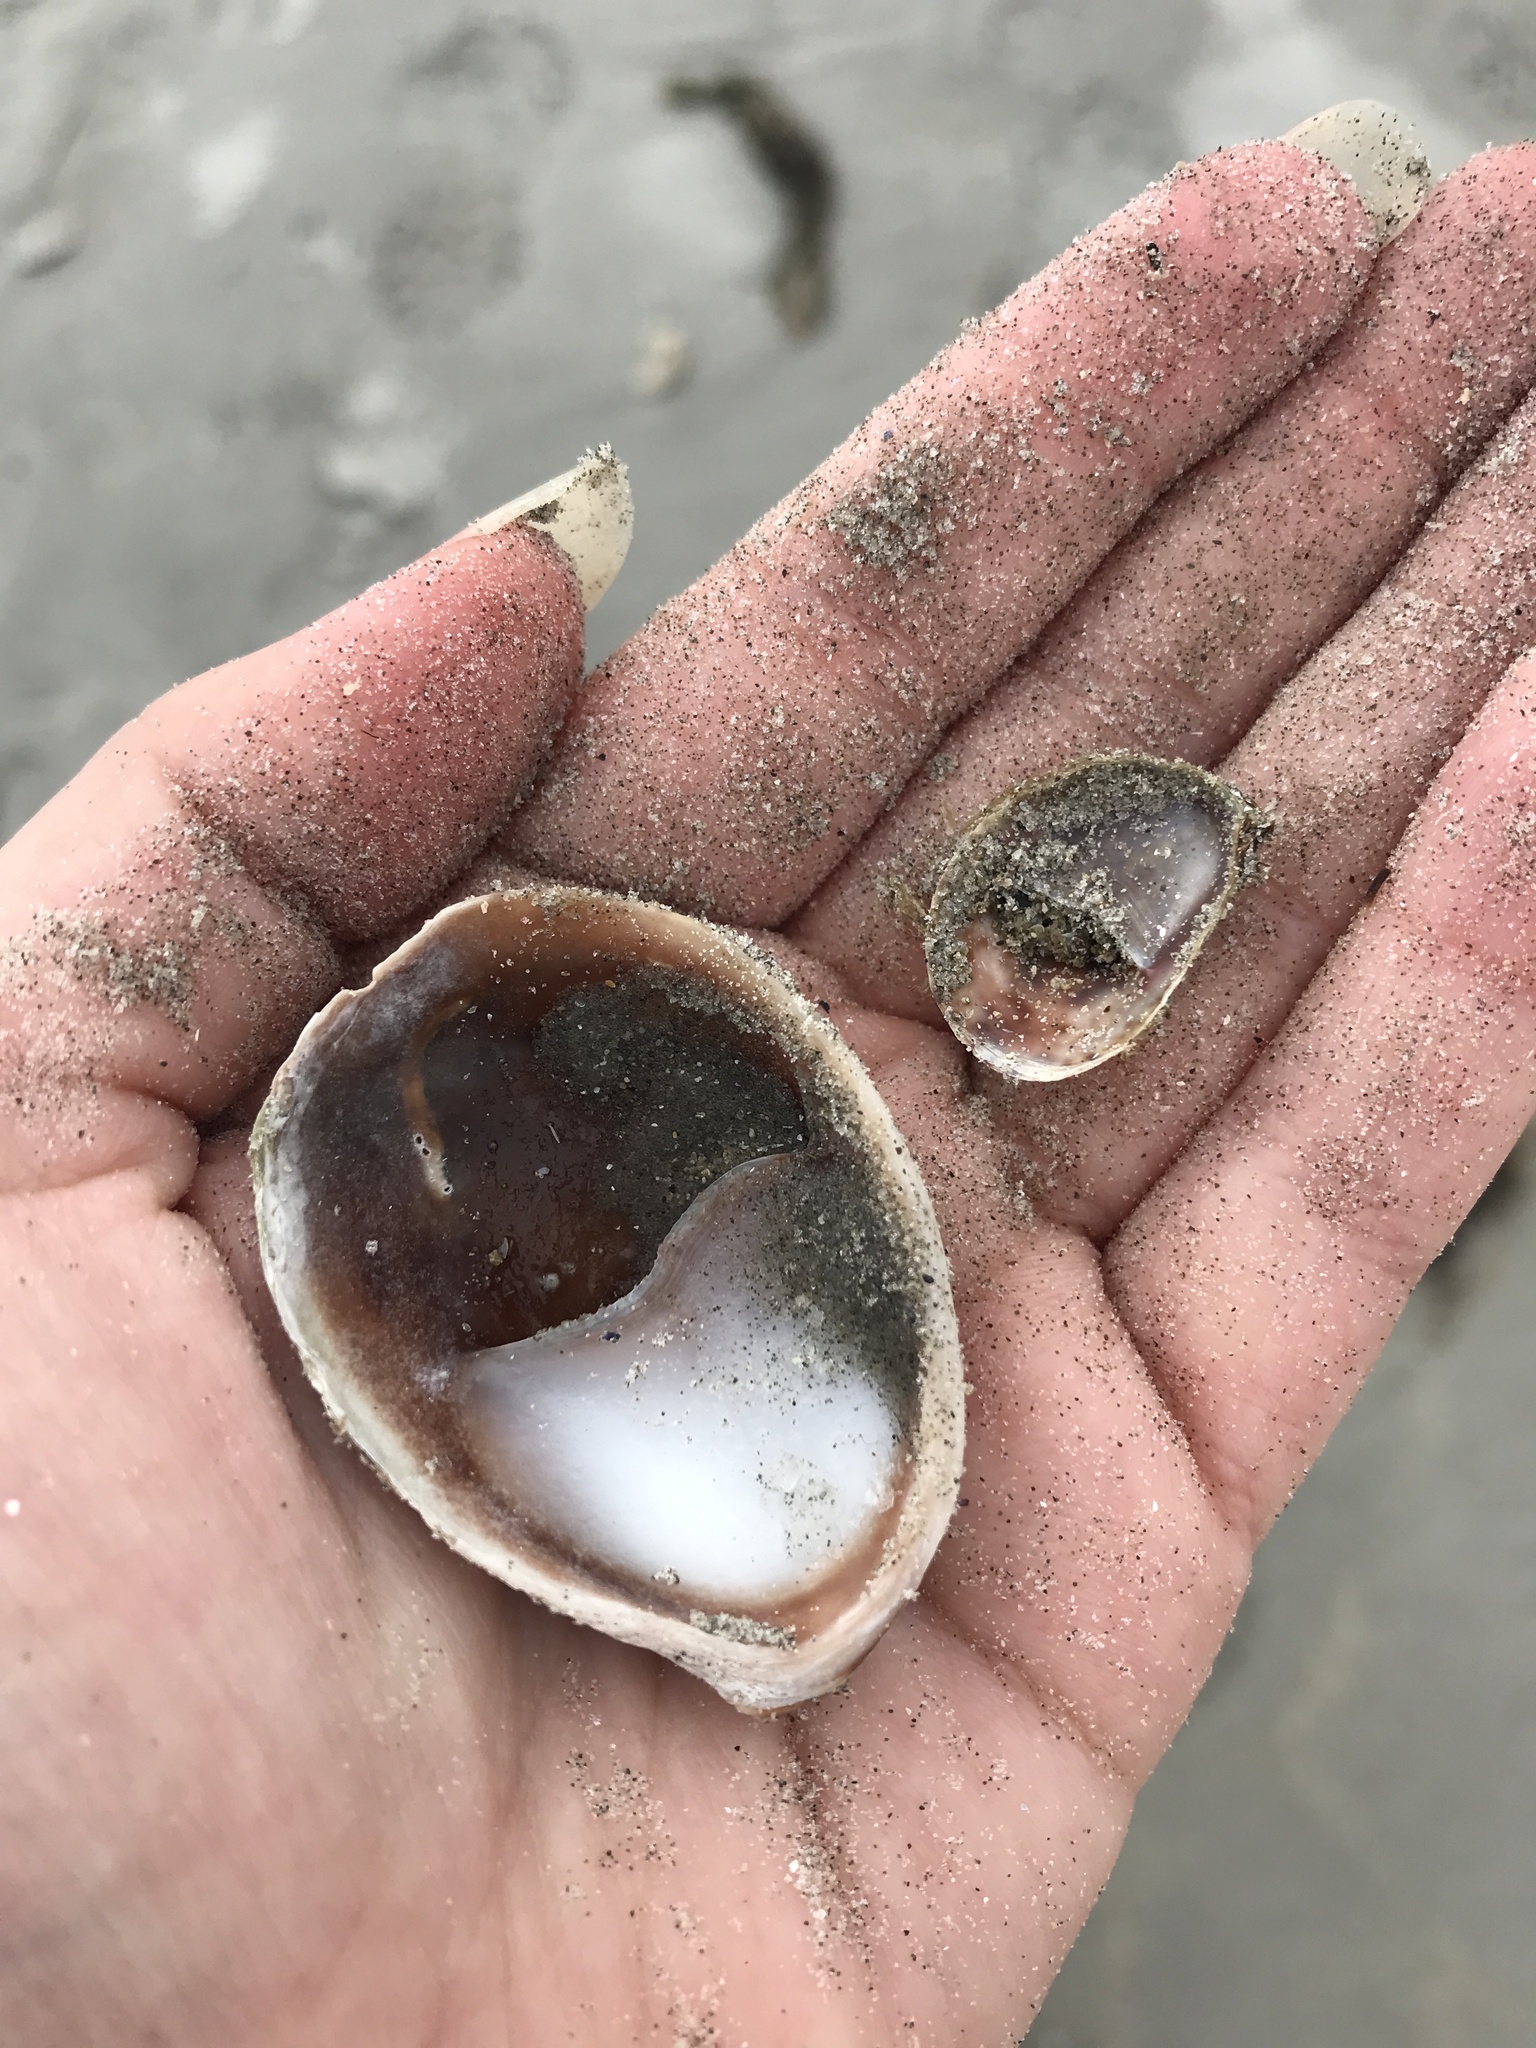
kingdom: Animalia
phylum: Mollusca
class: Gastropoda
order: Littorinimorpha
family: Calyptraeidae
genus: Crepidula
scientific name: Crepidula fornicata
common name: Slipper limpet
